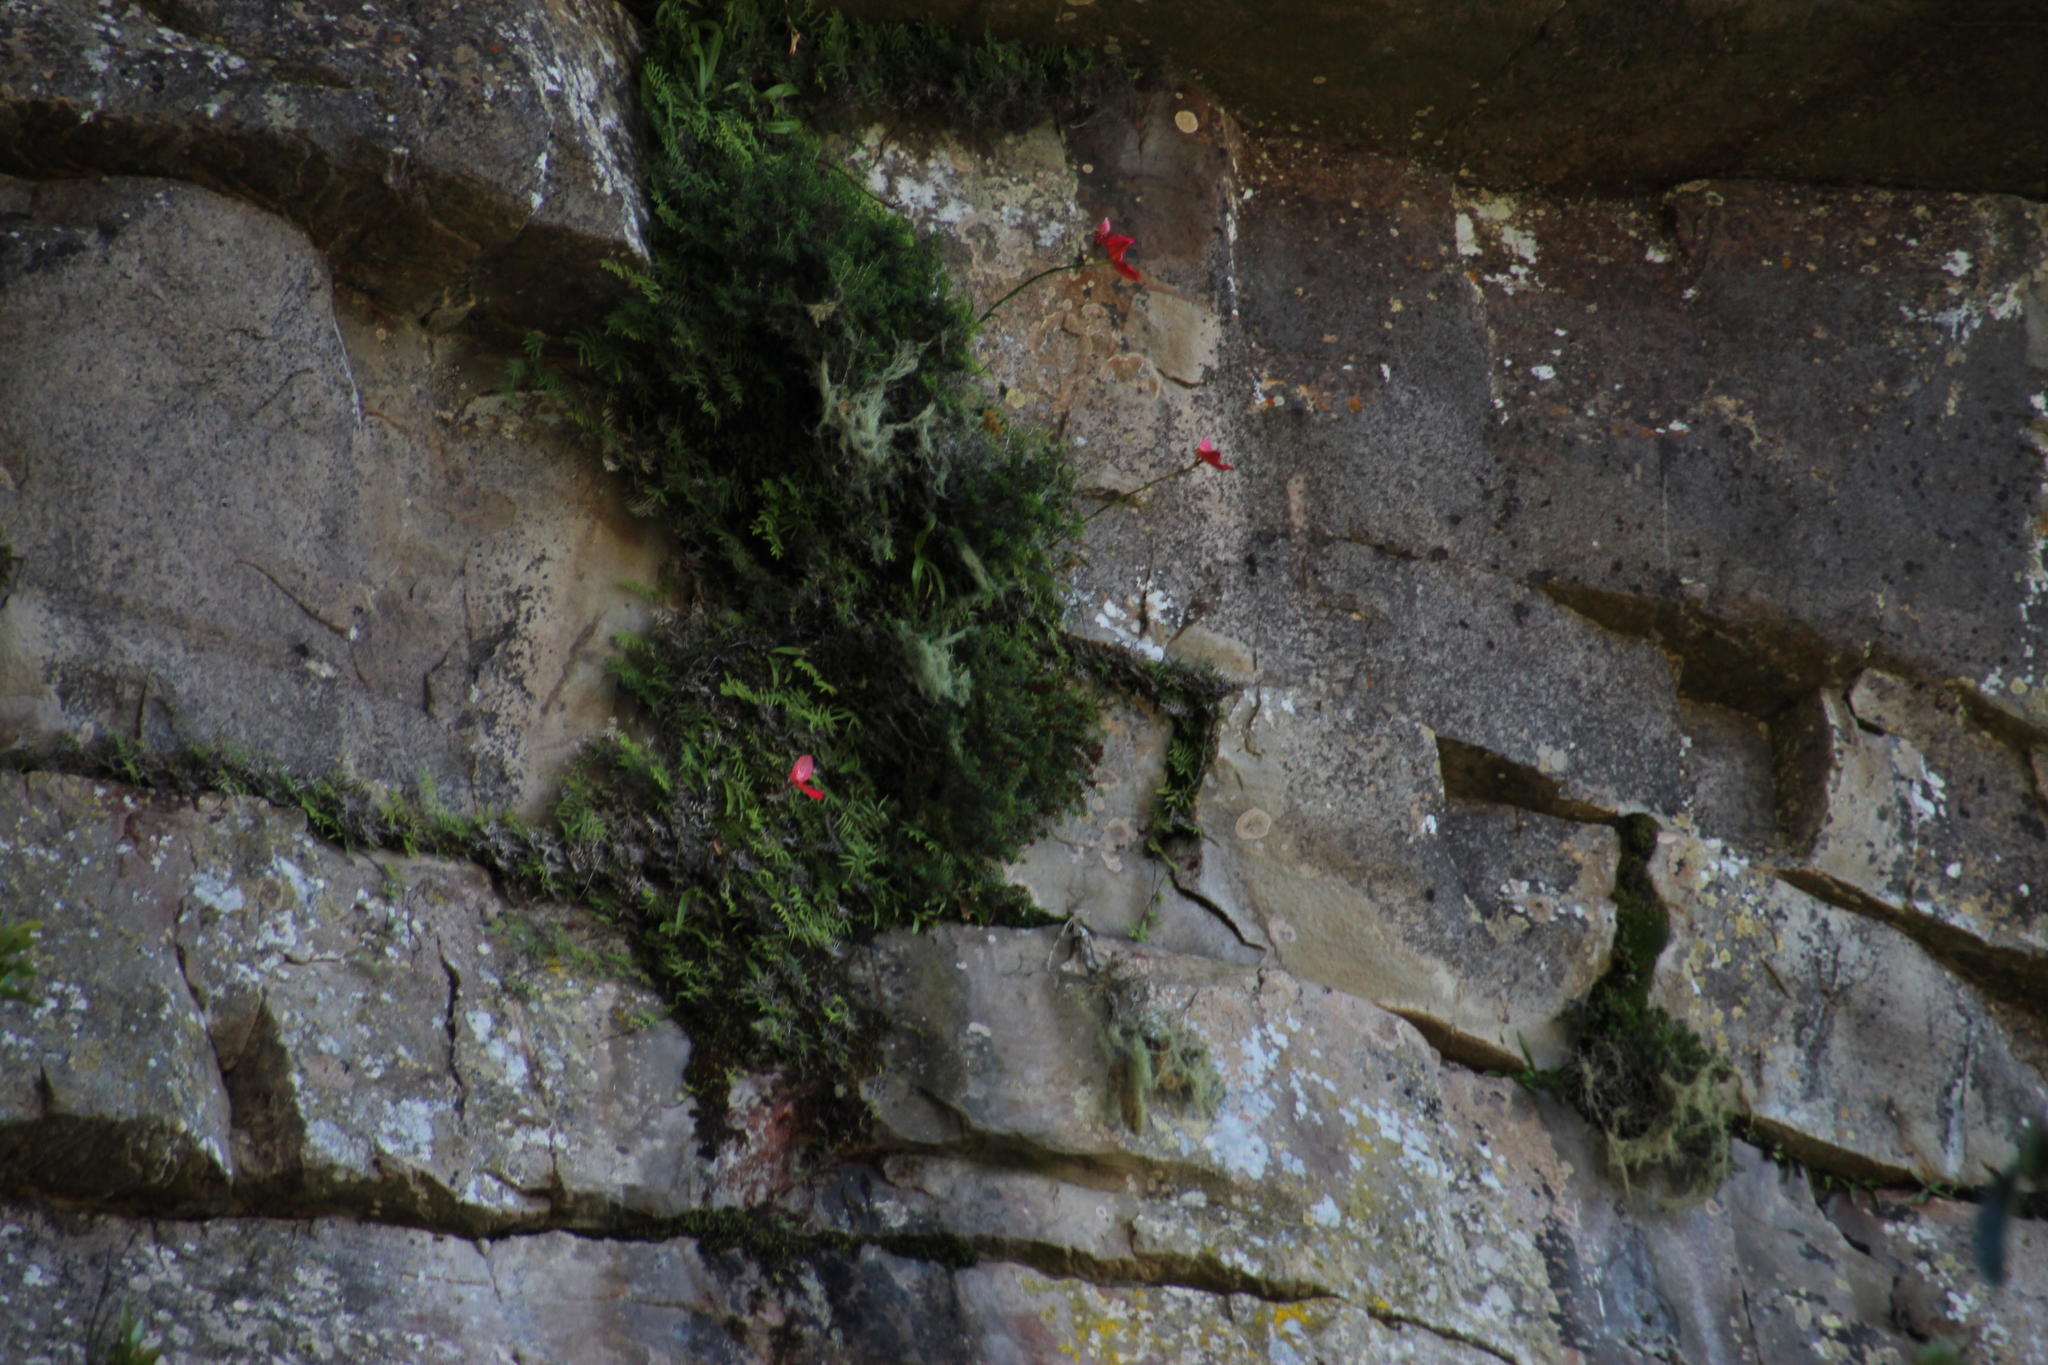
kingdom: Plantae
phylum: Tracheophyta
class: Liliopsida
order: Asparagales
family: Orchidaceae
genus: Disa
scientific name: Disa uniflora
